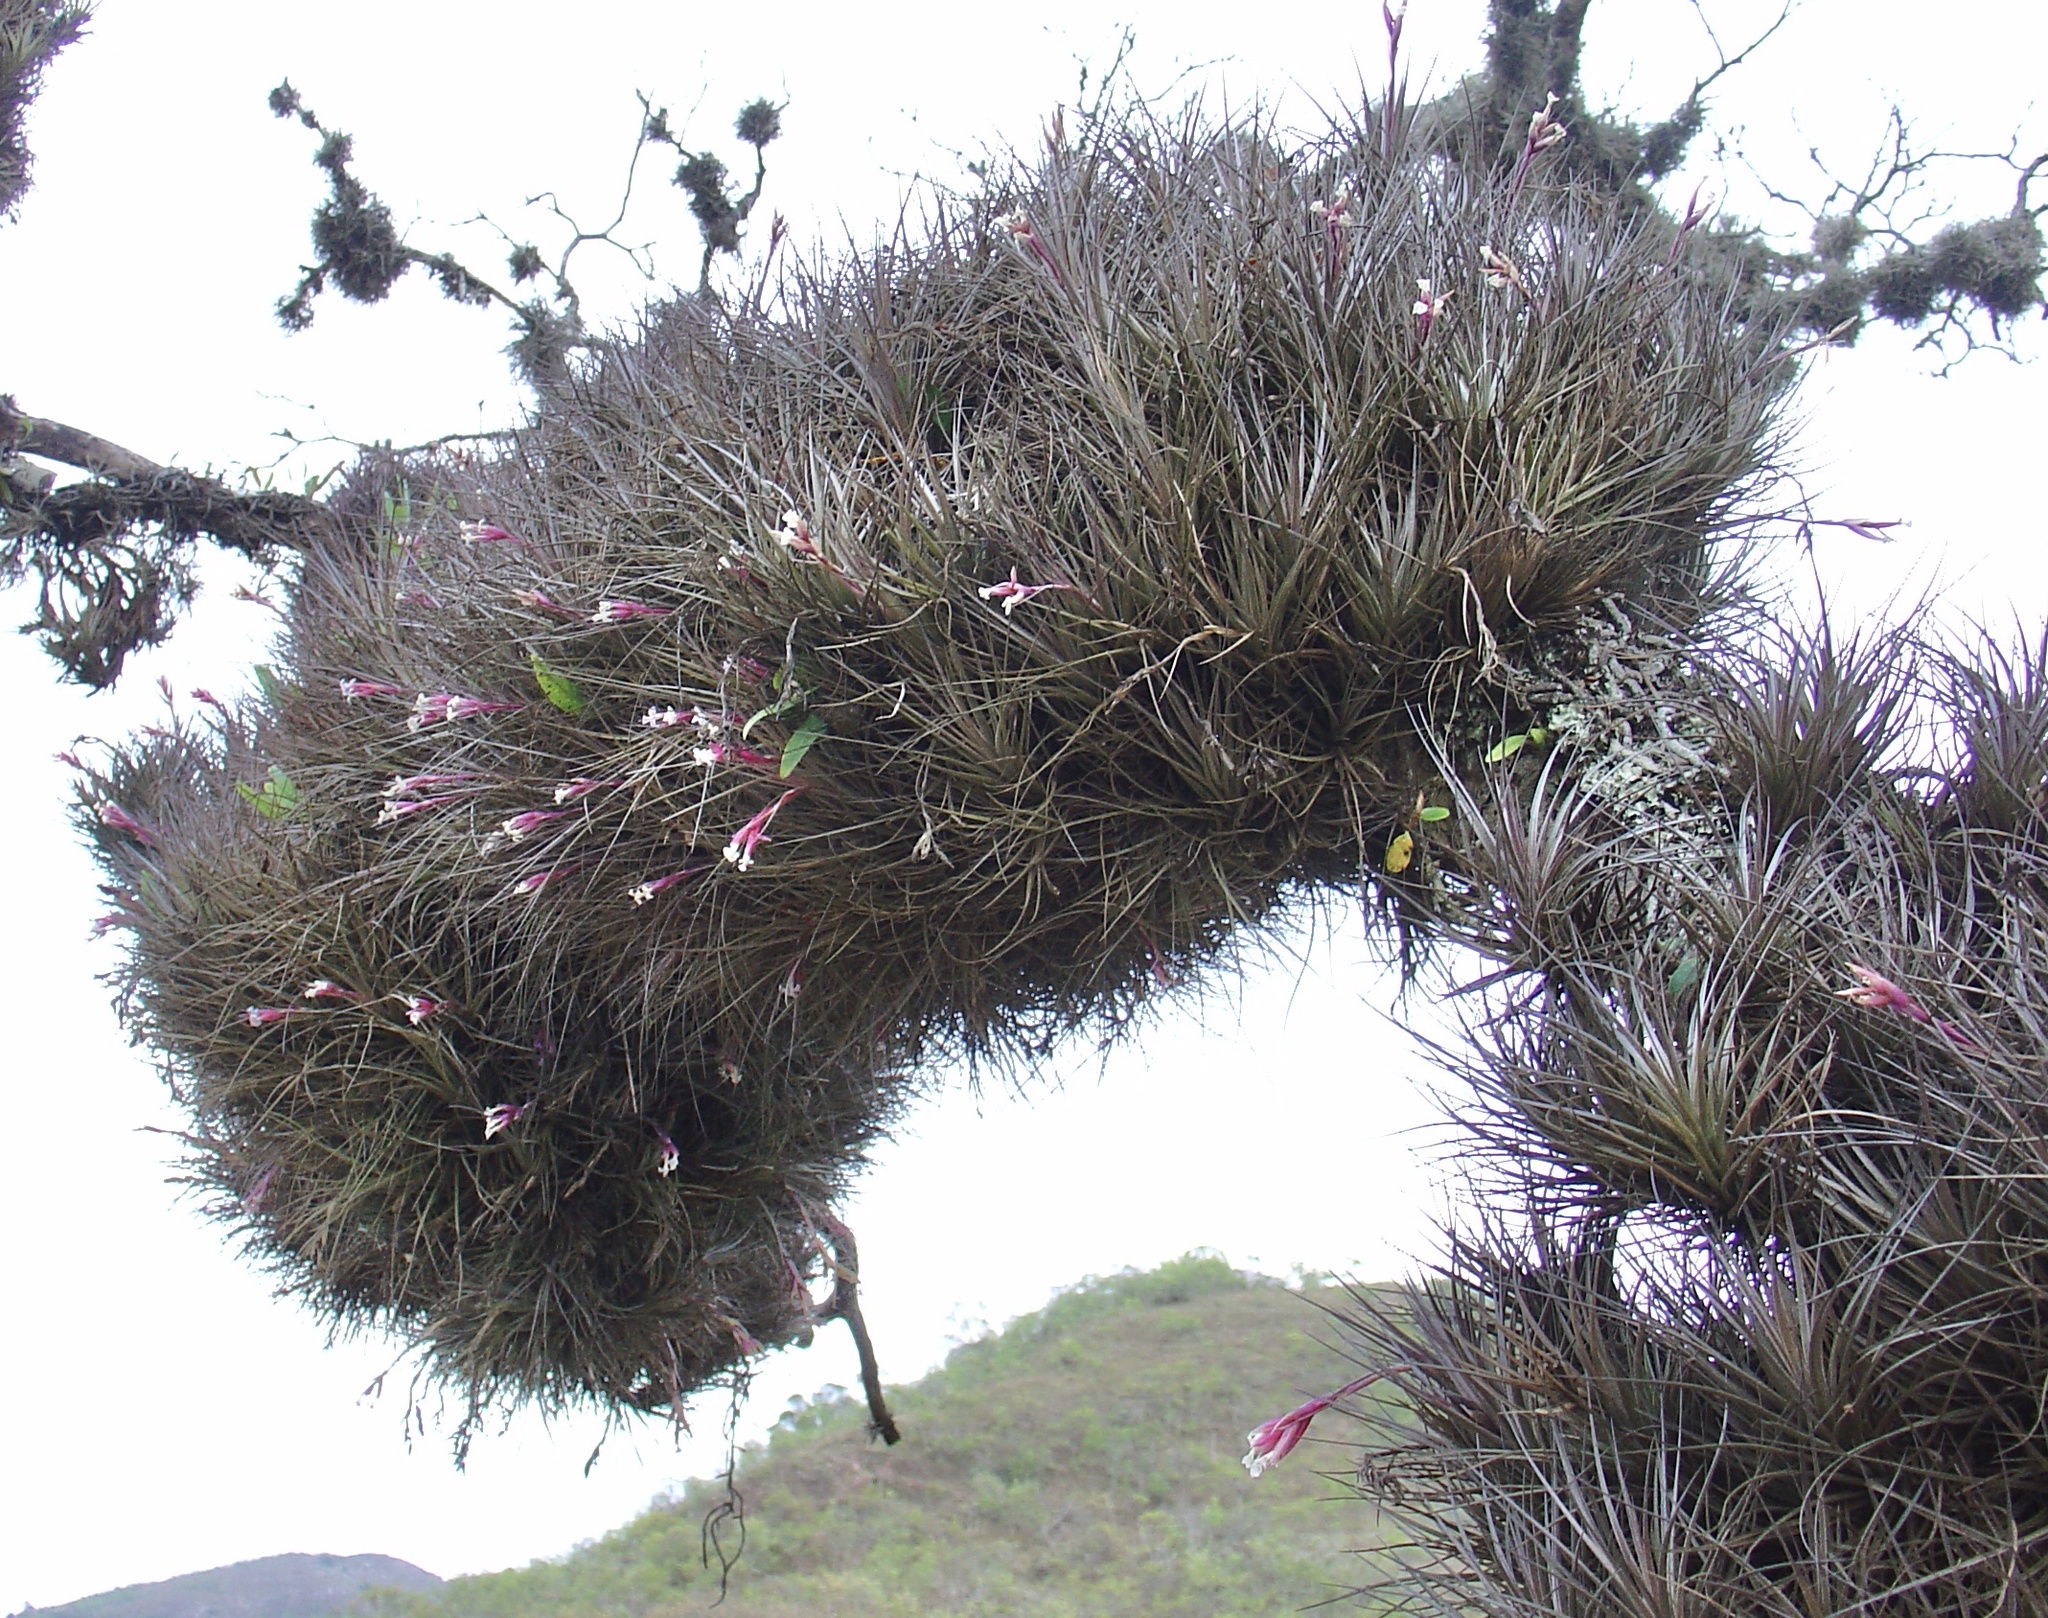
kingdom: Plantae
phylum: Tracheophyta
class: Liliopsida
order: Poales
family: Bromeliaceae
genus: Tillandsia
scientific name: Tillandsia tenuifolia
